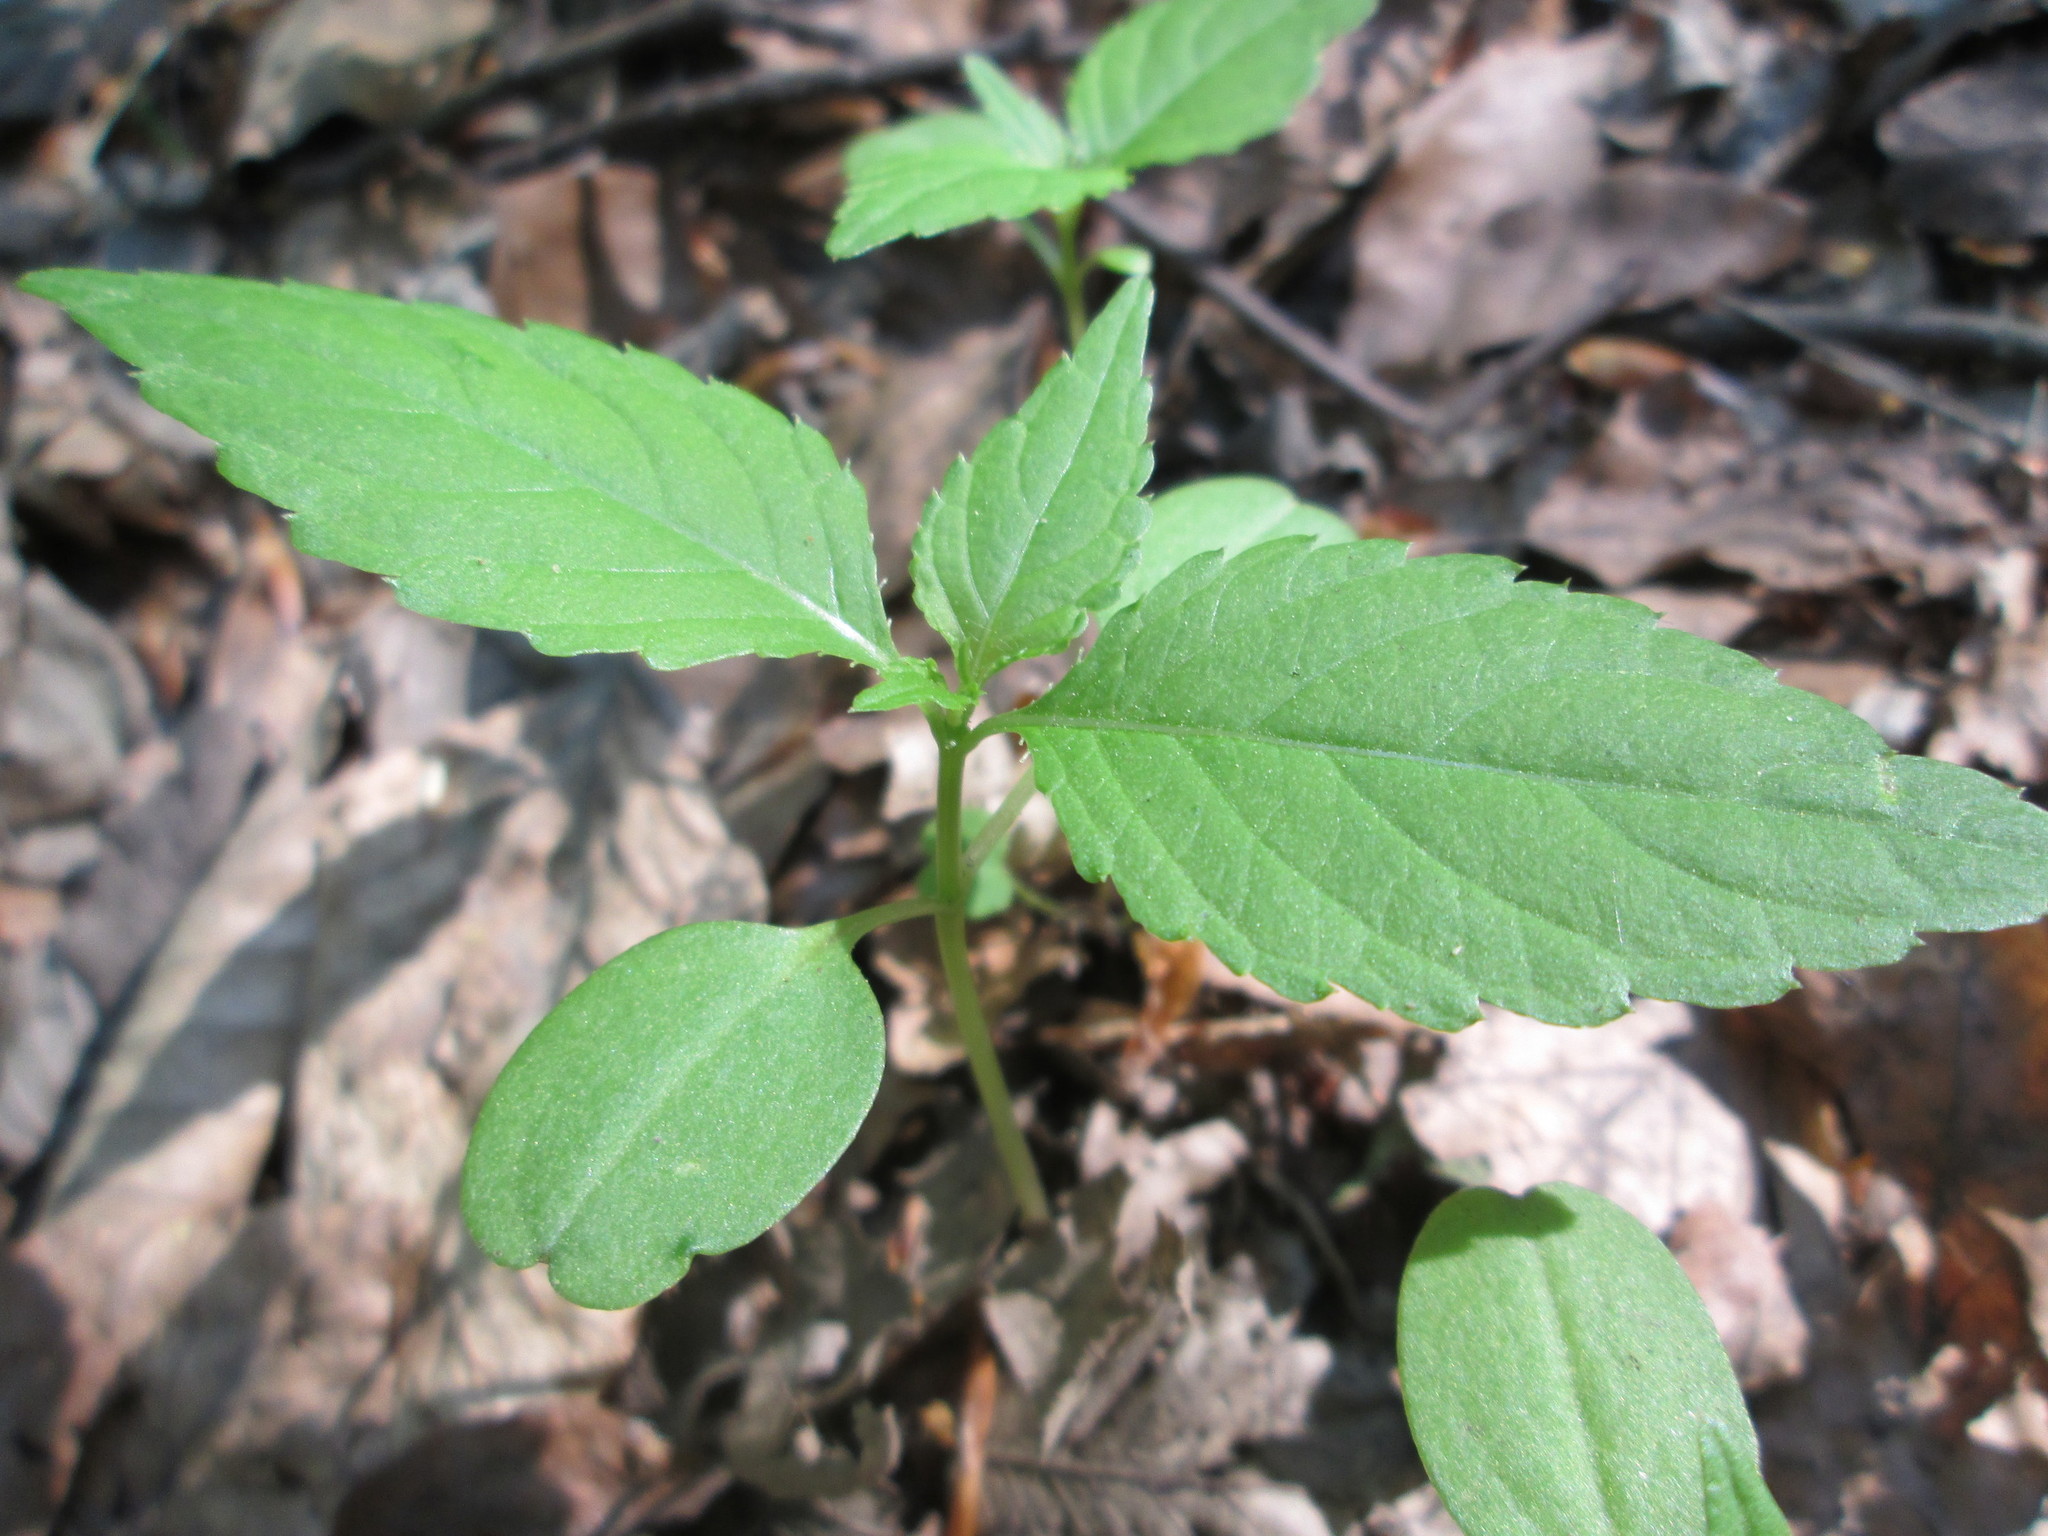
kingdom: Plantae
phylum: Tracheophyta
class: Magnoliopsida
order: Ericales
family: Balsaminaceae
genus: Impatiens
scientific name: Impatiens parviflora
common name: Small balsam
